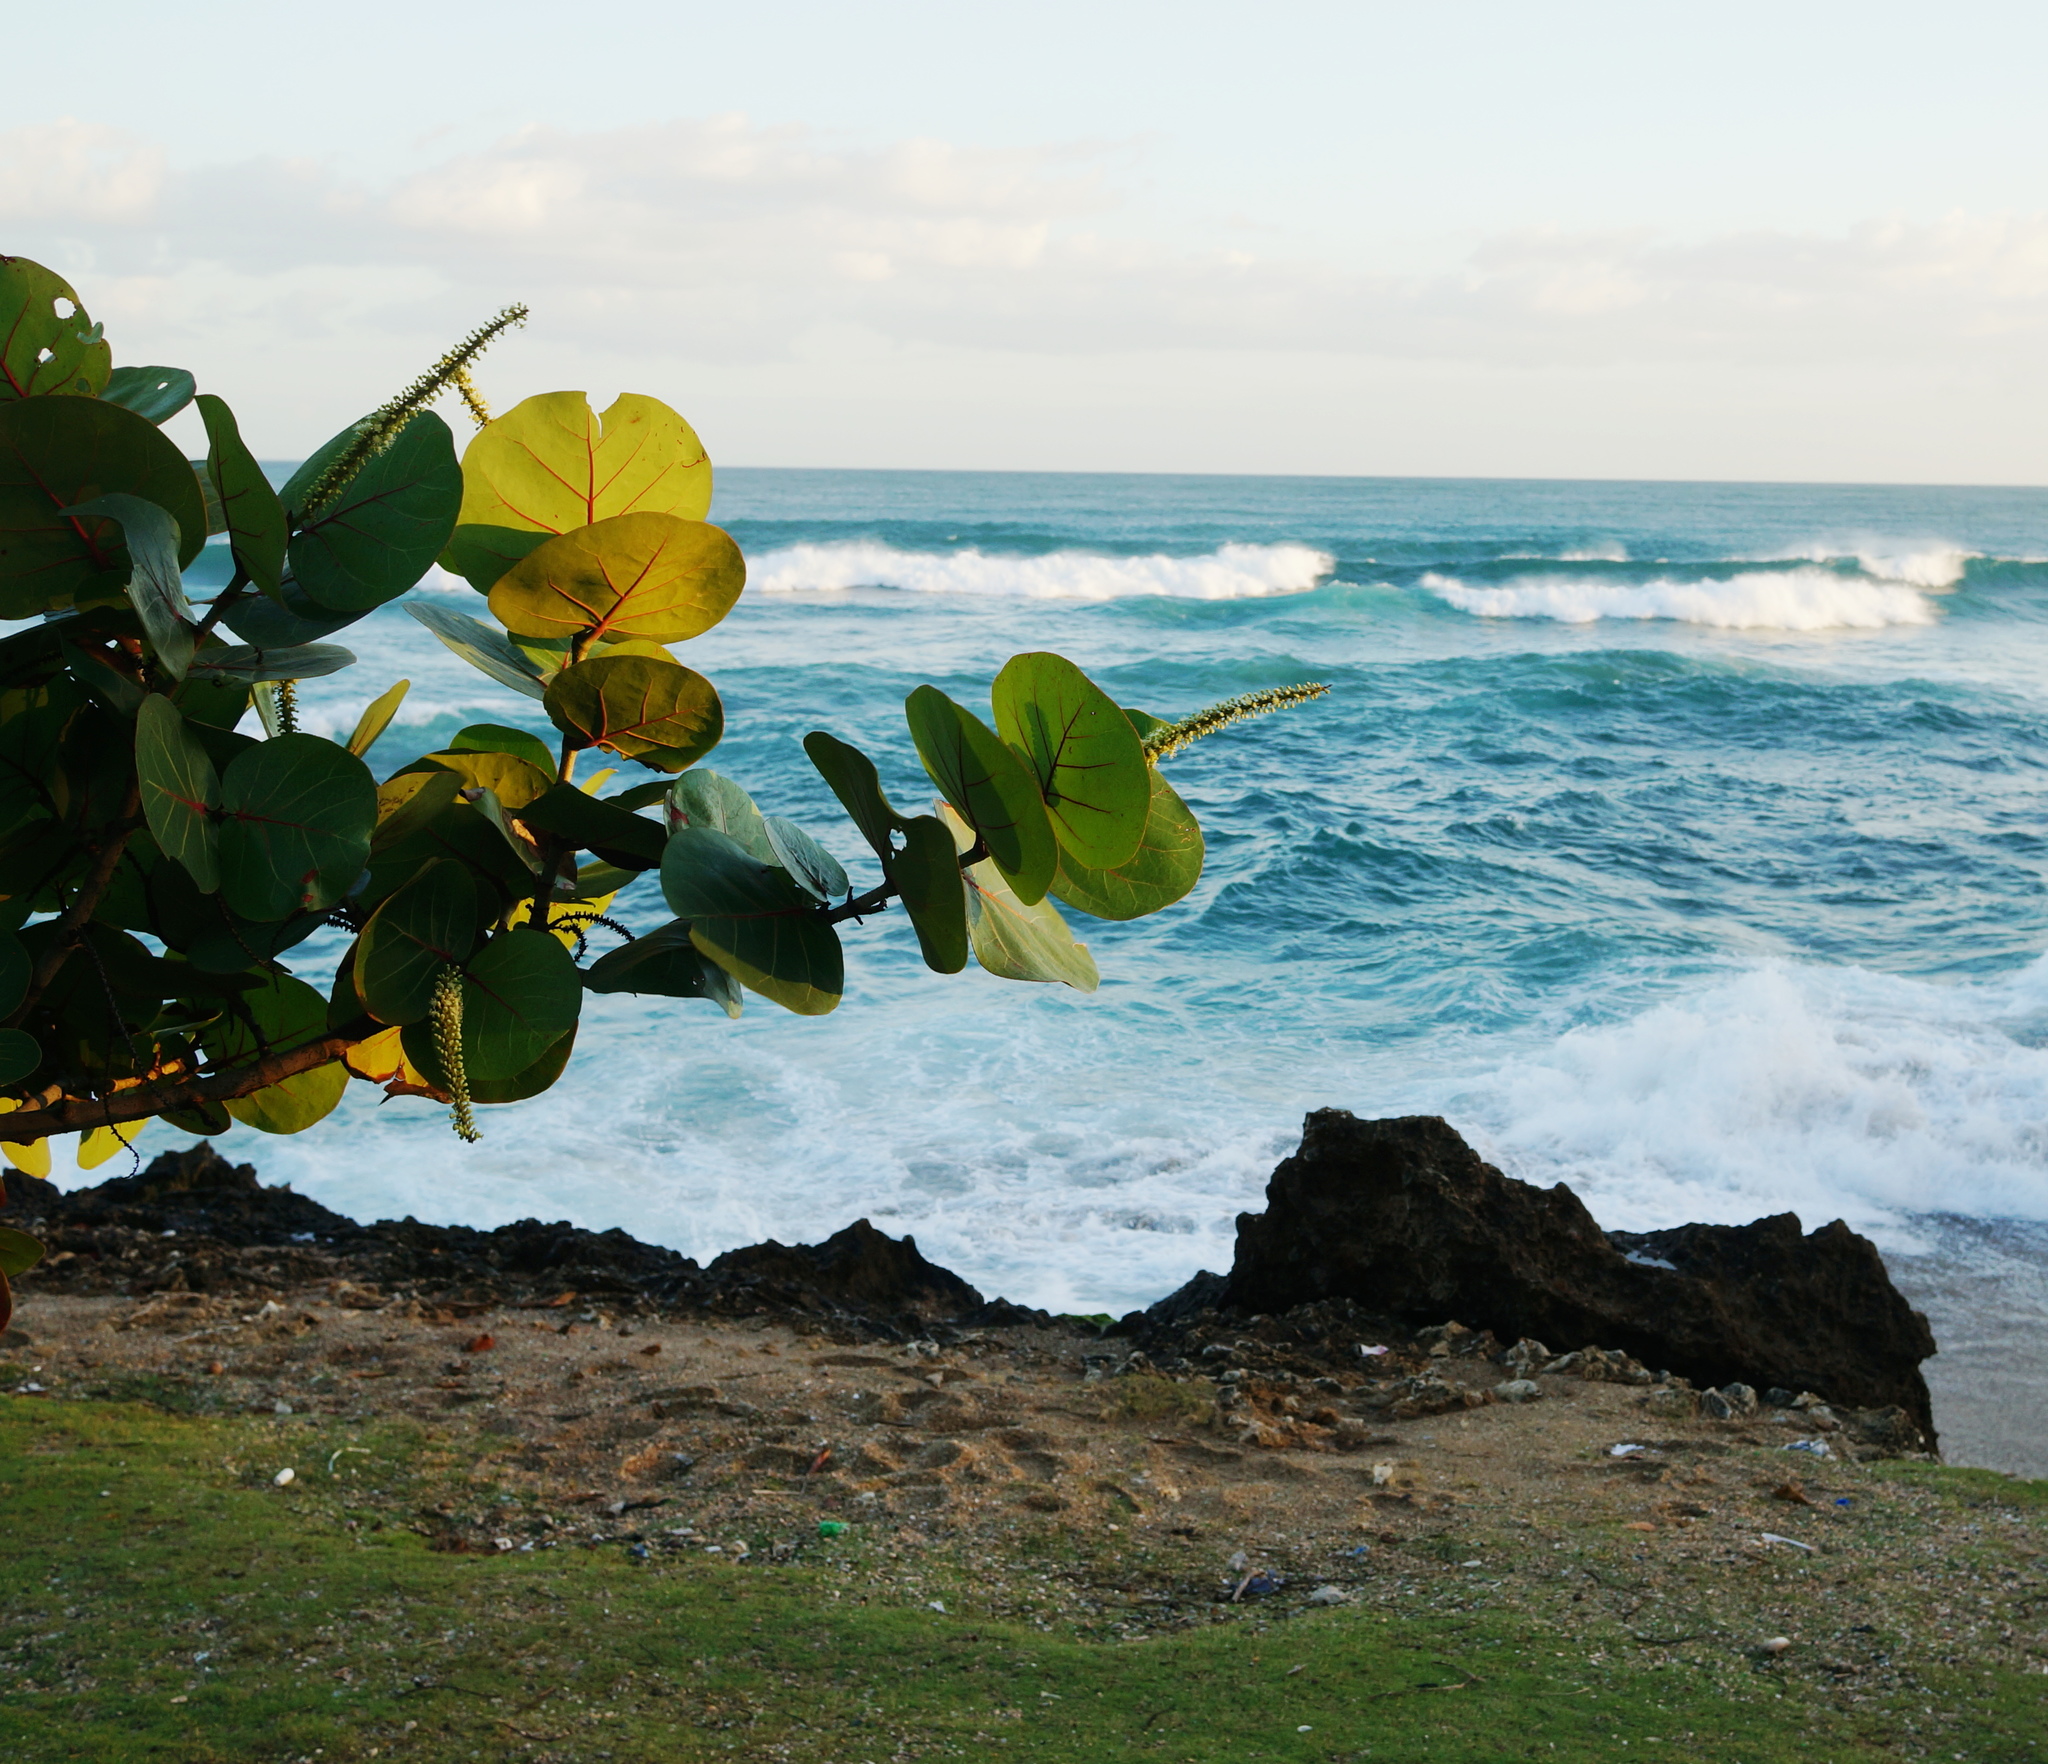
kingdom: Plantae
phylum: Tracheophyta
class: Magnoliopsida
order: Caryophyllales
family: Polygonaceae
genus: Coccoloba
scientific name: Coccoloba uvifera
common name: Seagrape
